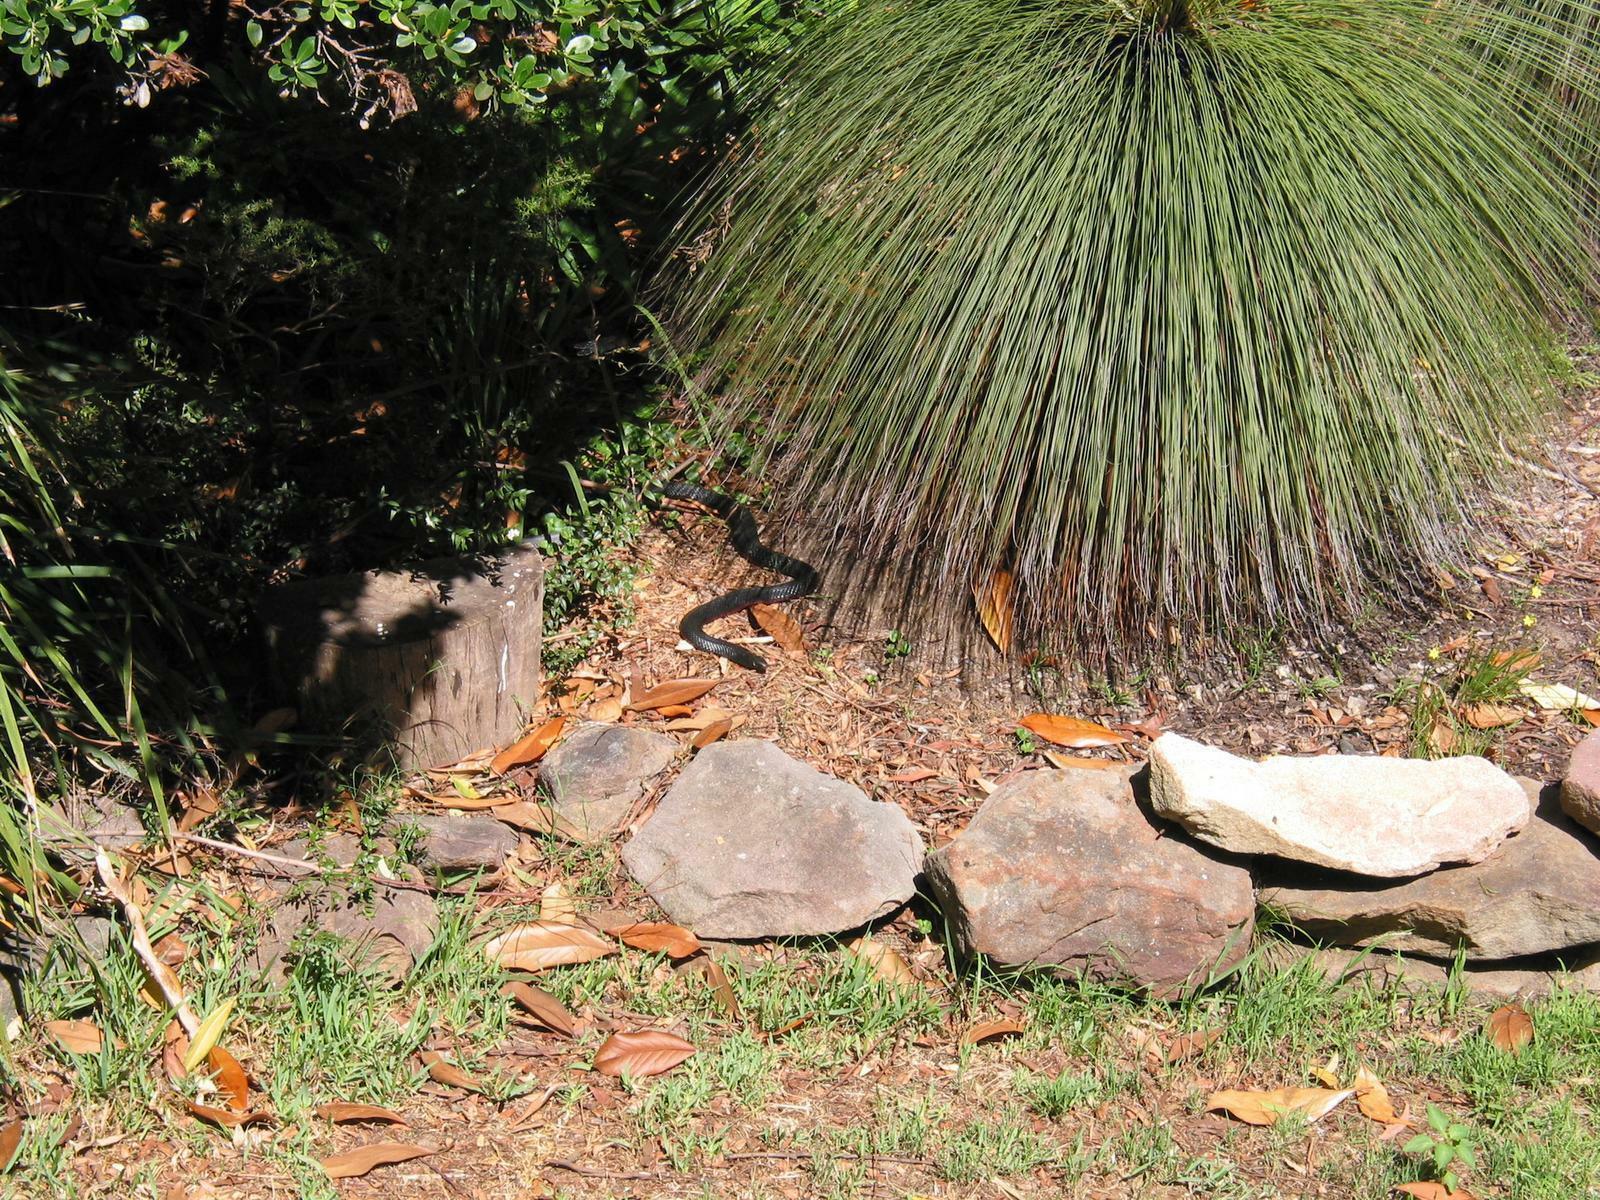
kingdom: Animalia
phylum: Chordata
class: Squamata
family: Elapidae
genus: Pseudechis
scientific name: Pseudechis porphyriacus
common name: Australian black snake
